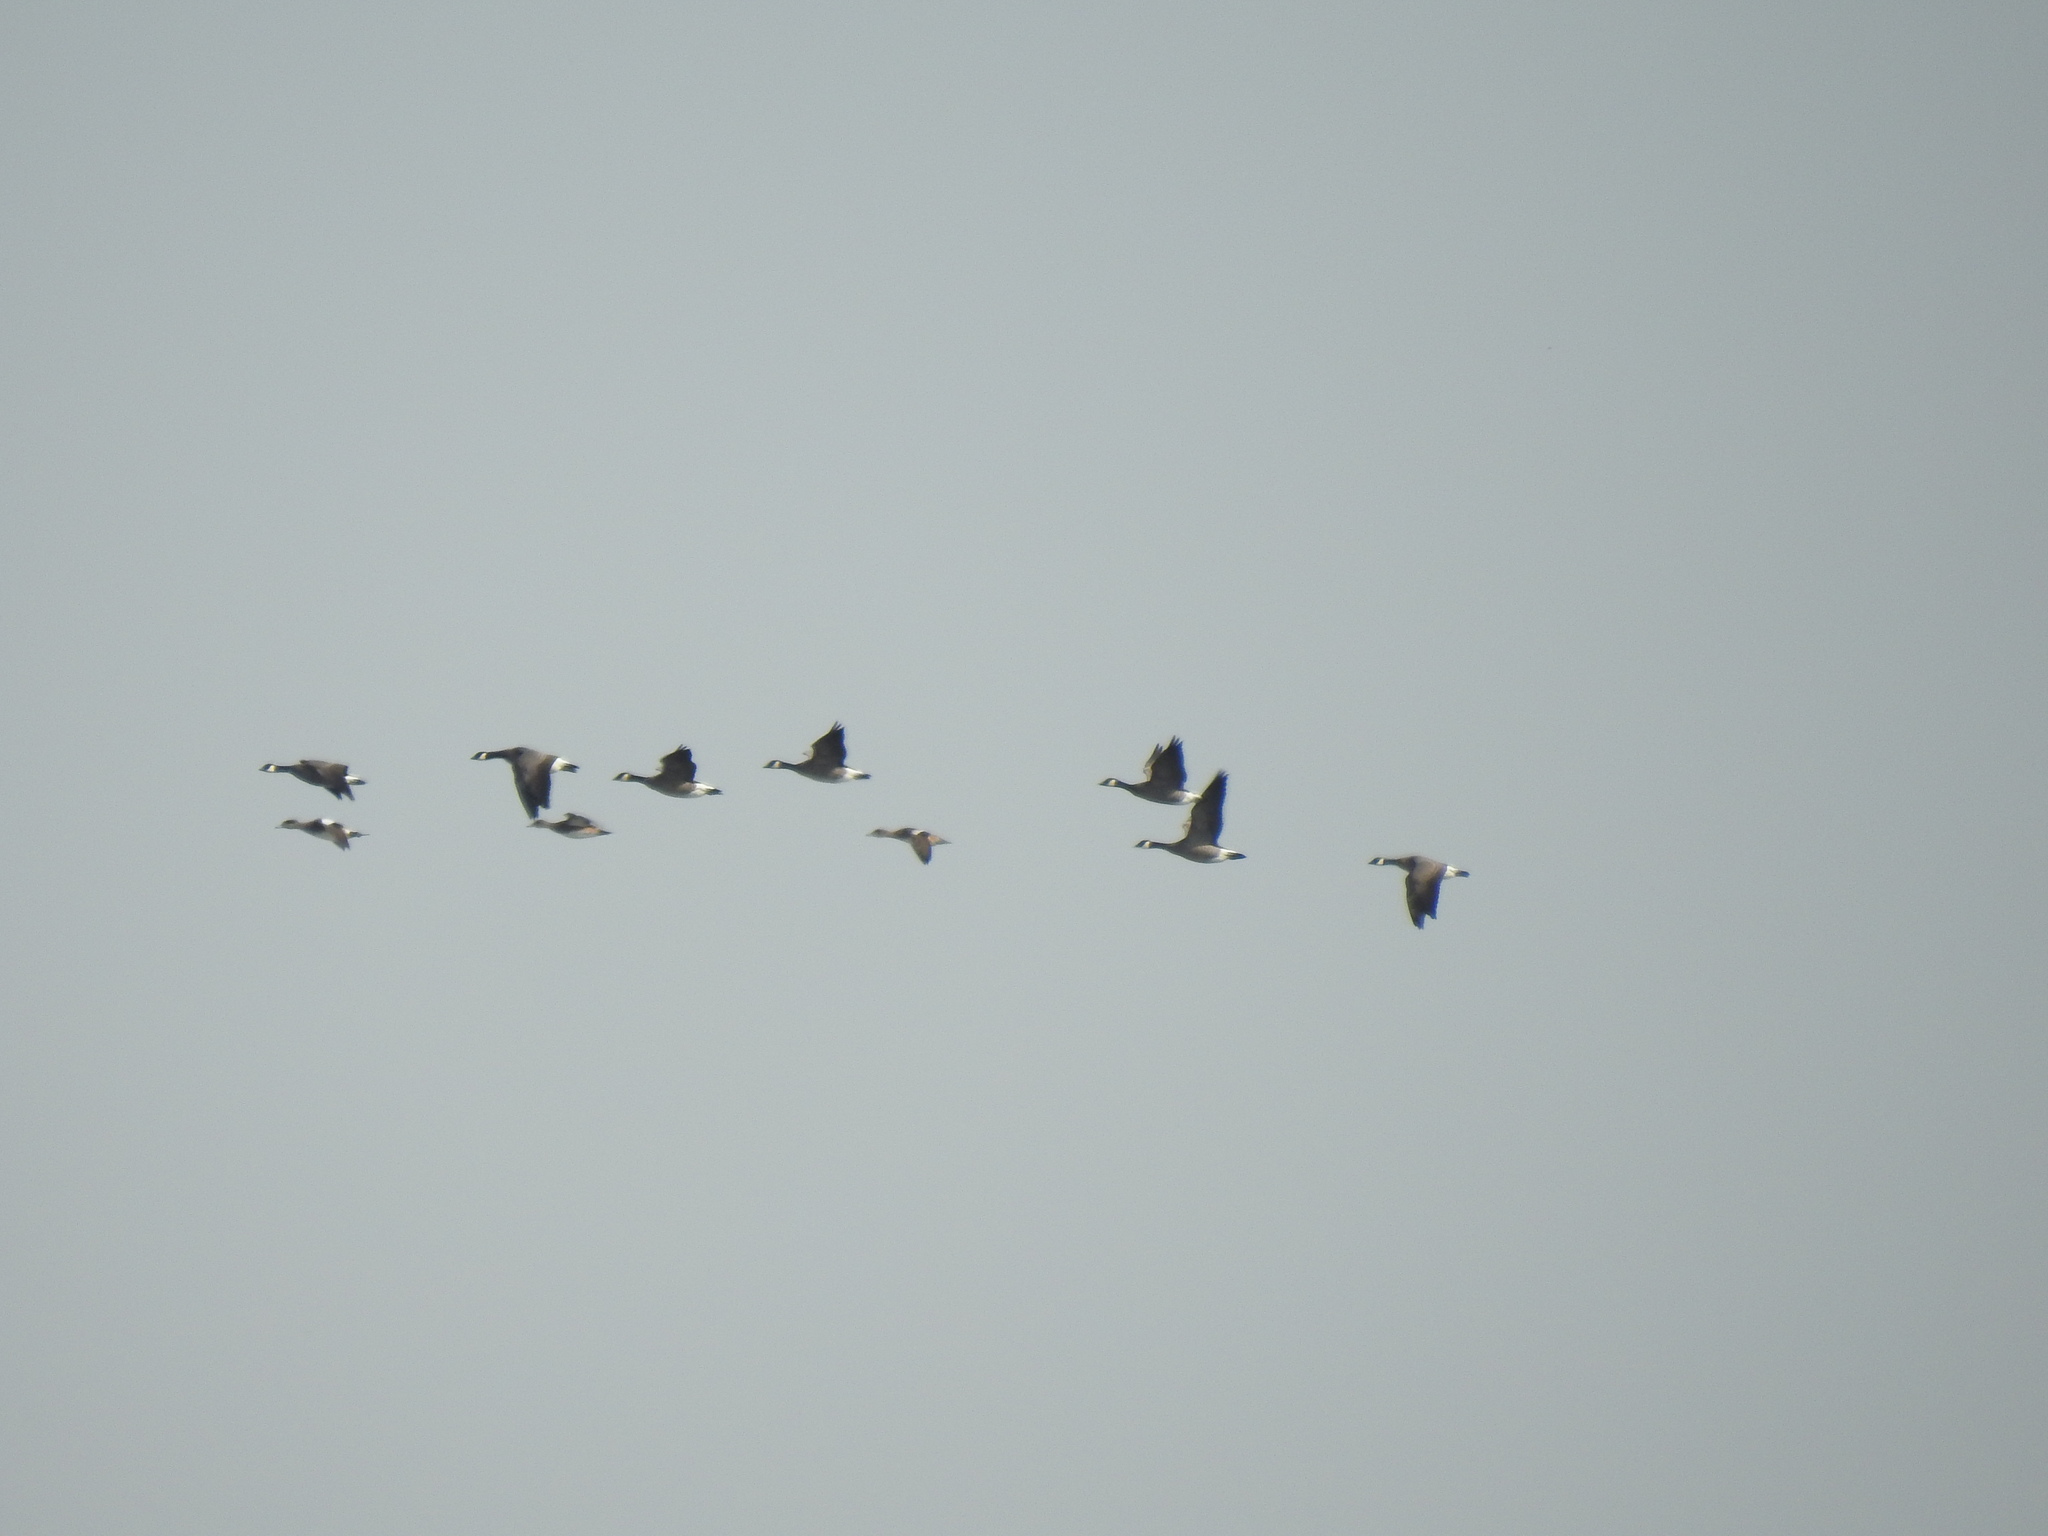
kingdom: Animalia
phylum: Chordata
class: Aves
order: Anseriformes
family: Anatidae
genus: Branta
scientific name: Branta hutchinsii
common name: Cackling goose
